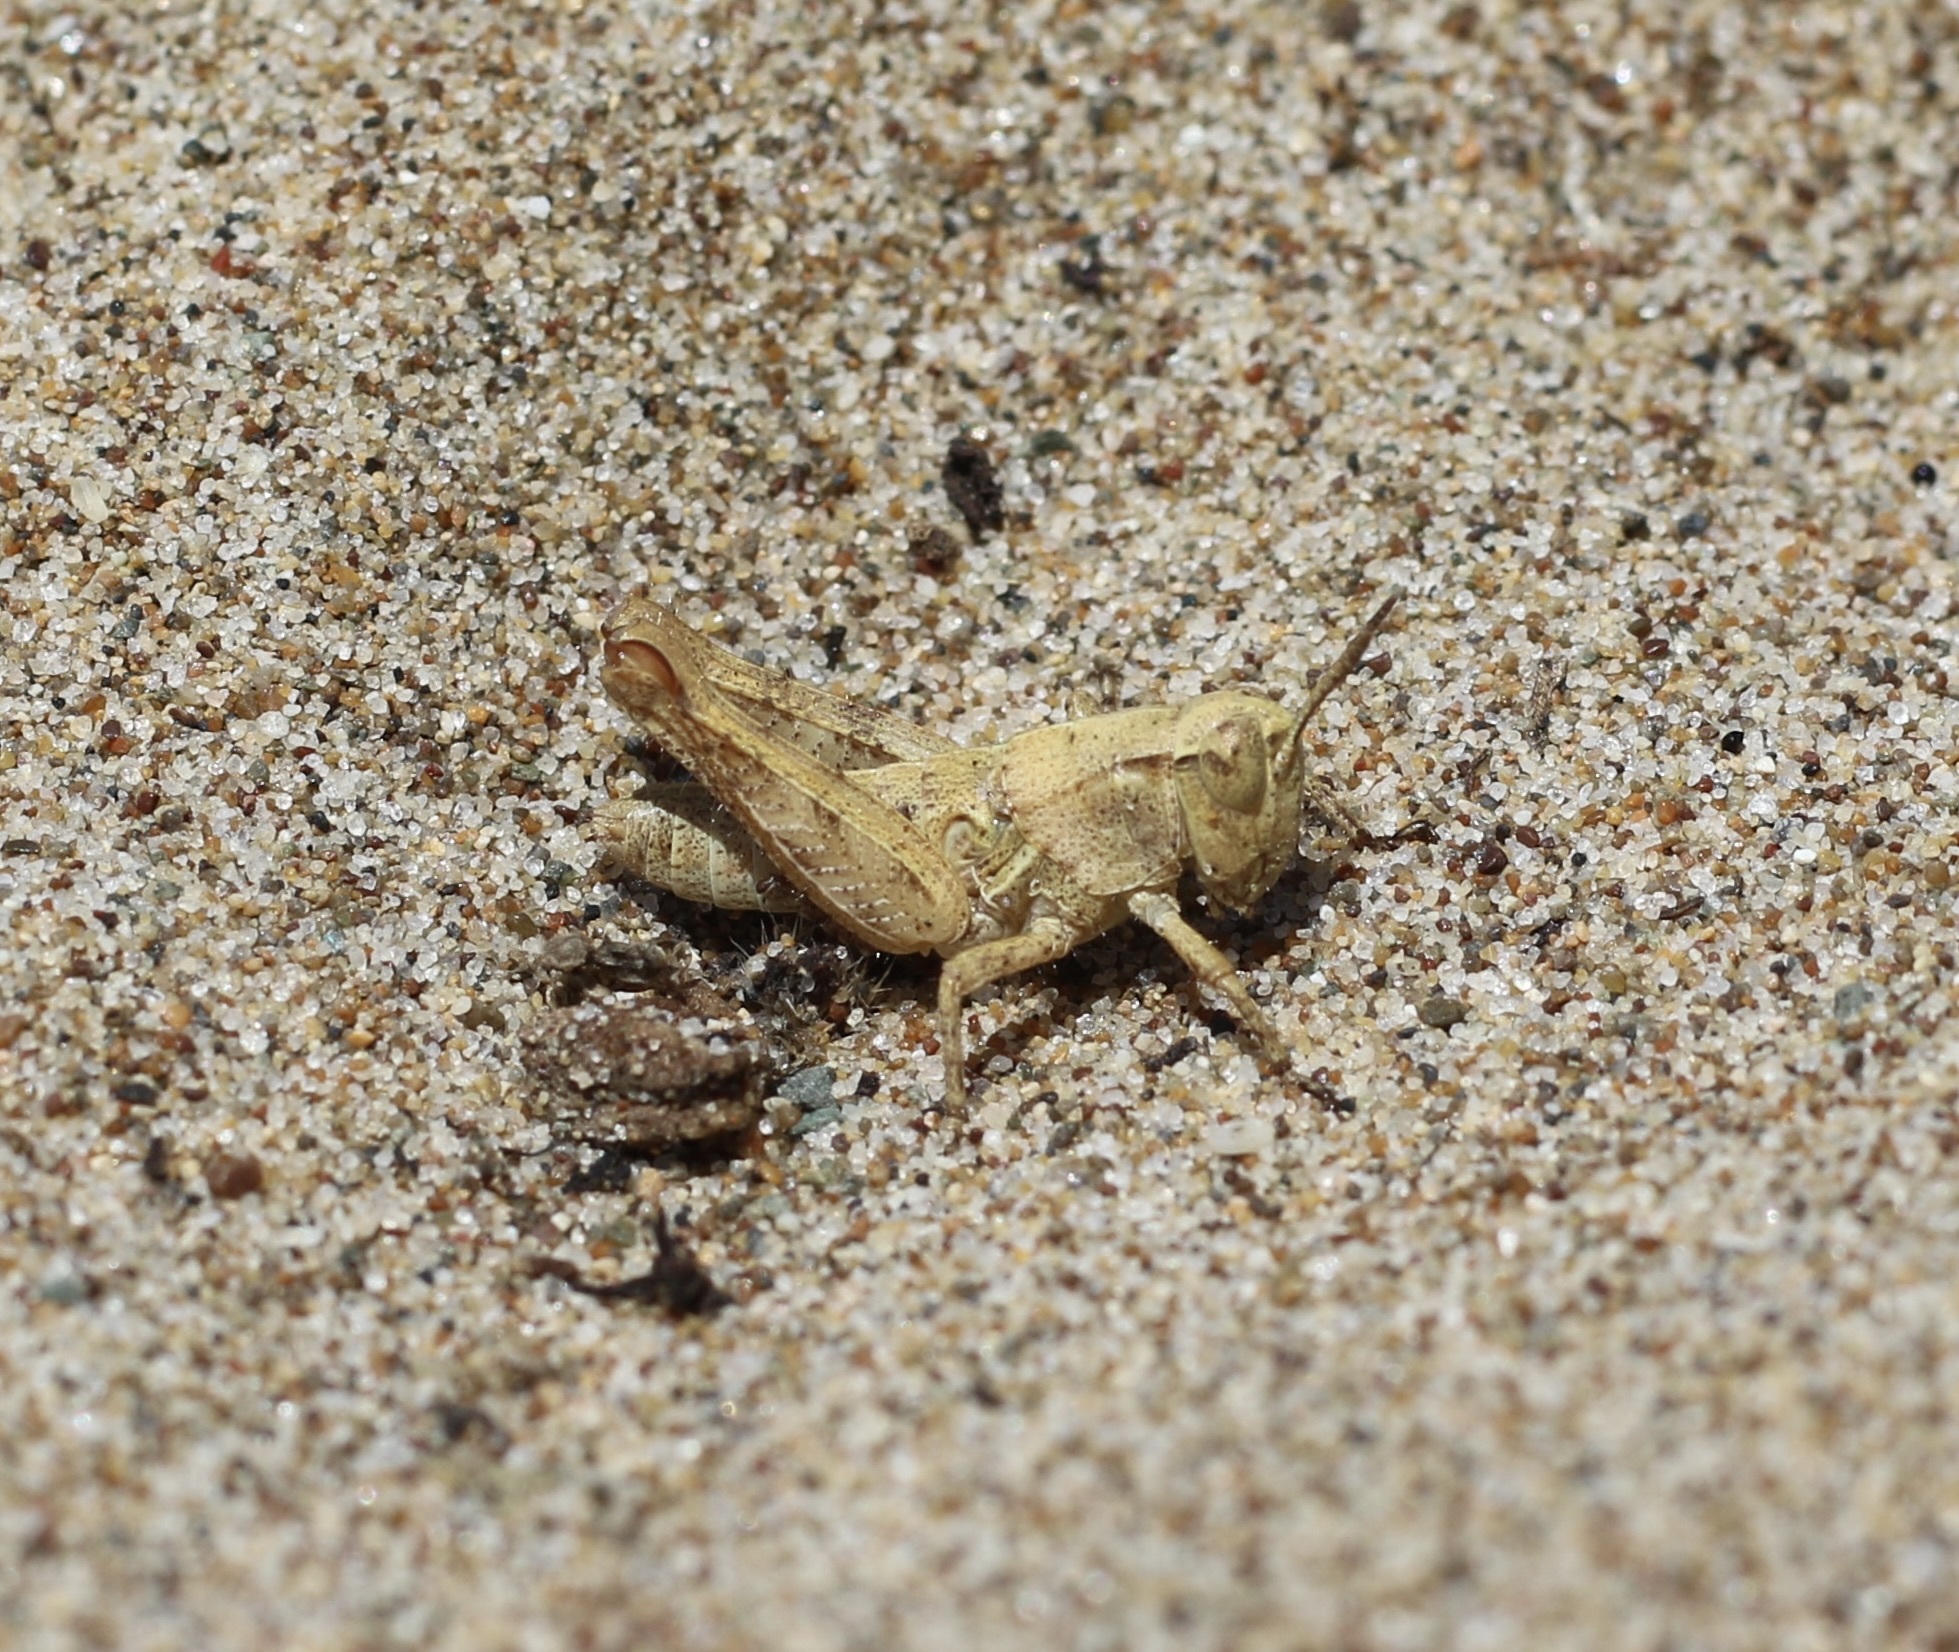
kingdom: Animalia
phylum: Arthropoda
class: Insecta
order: Orthoptera
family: Acrididae
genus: Oedaleonotus
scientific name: Oedaleonotus phryneicus
